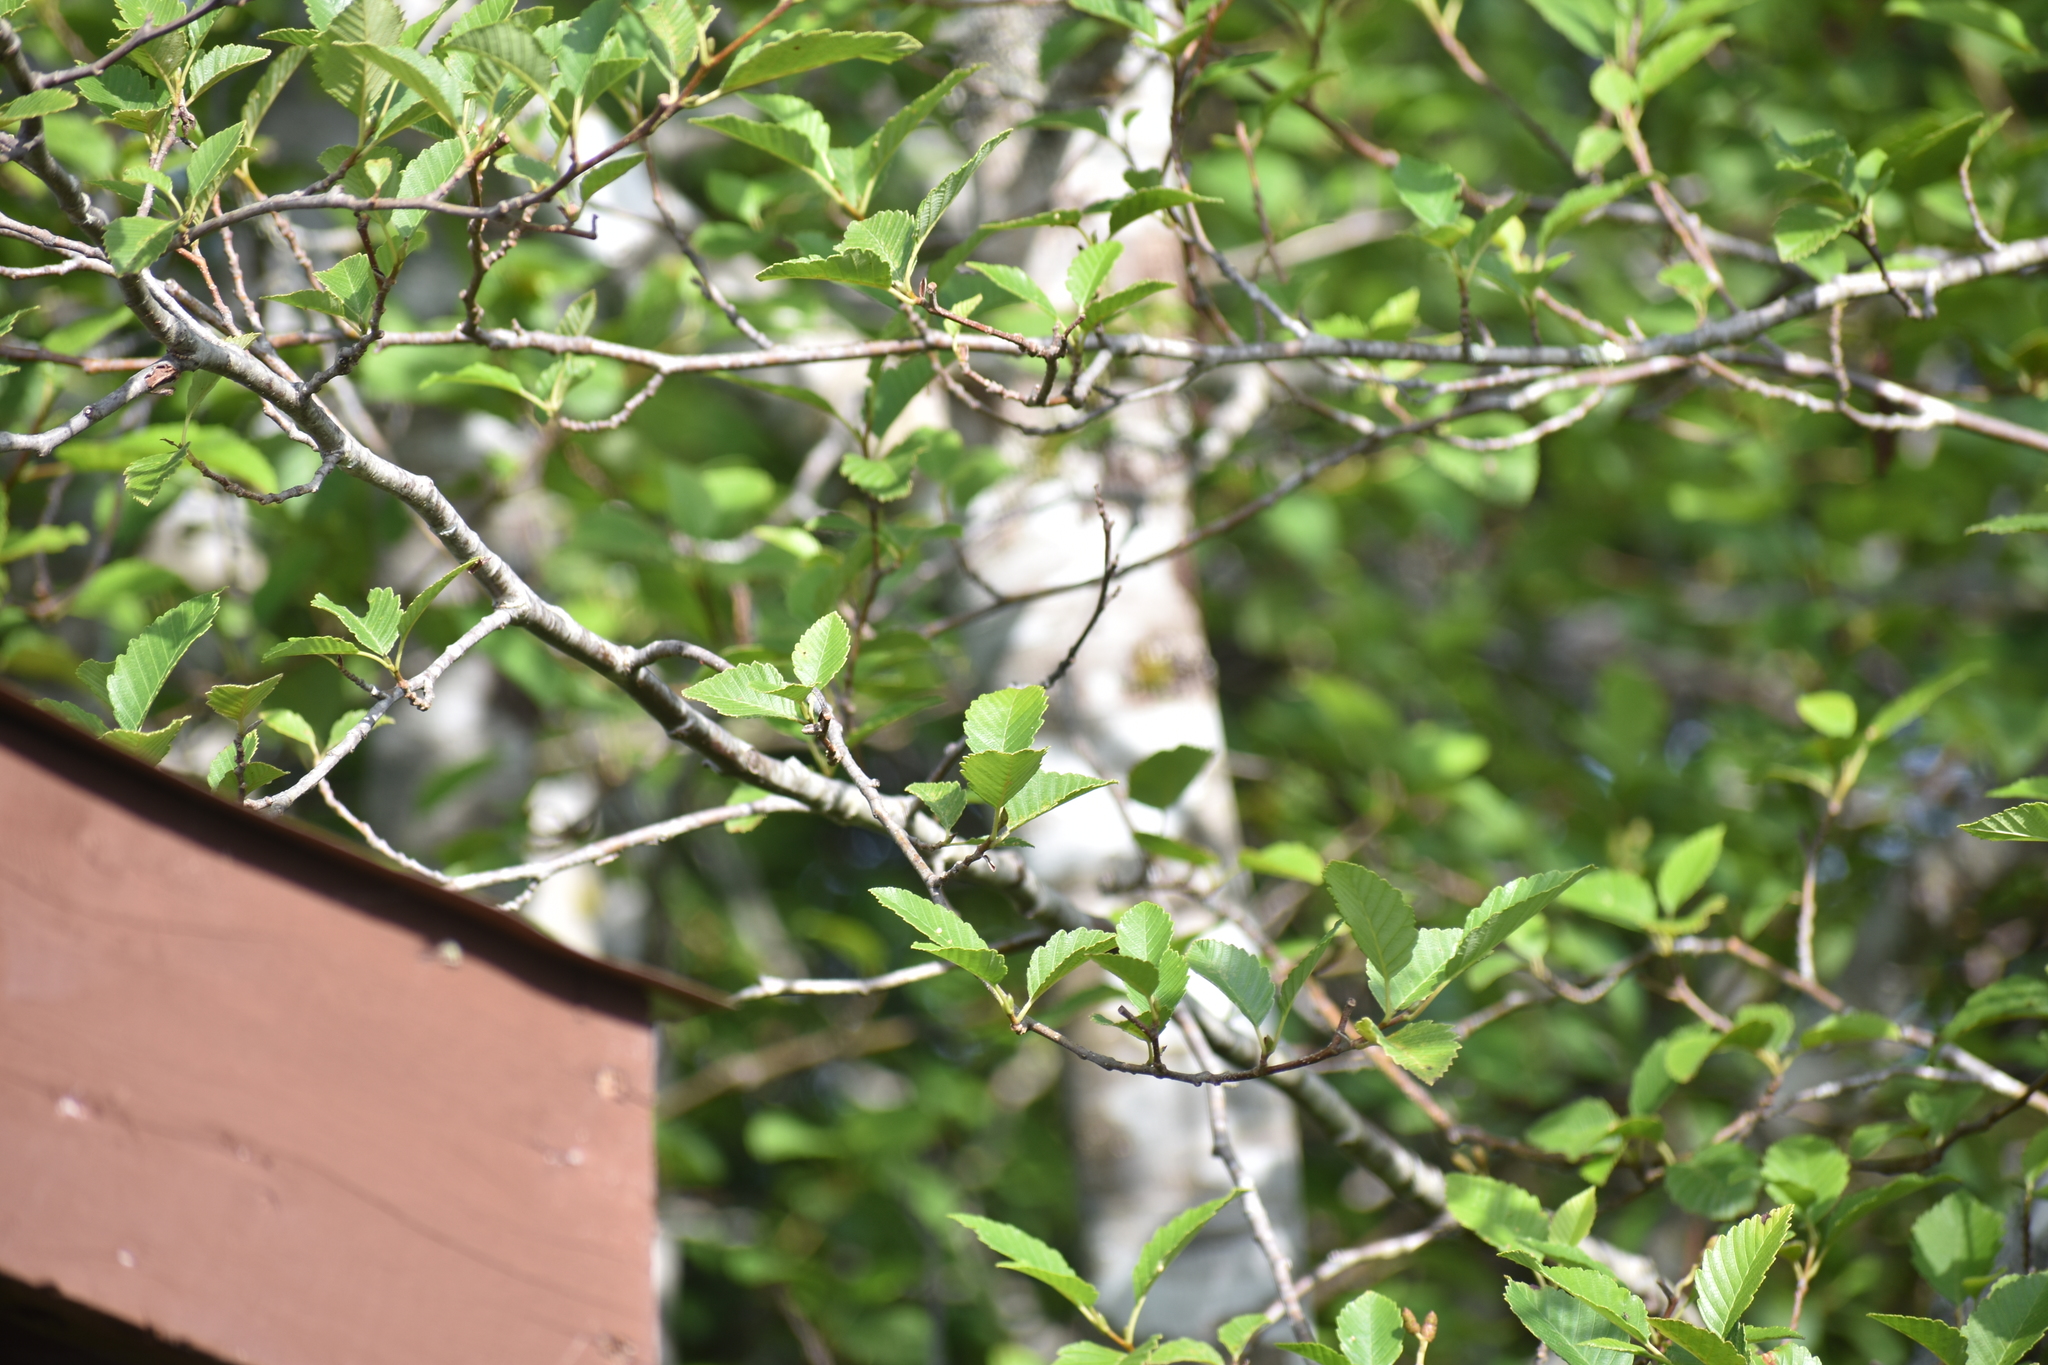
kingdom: Plantae
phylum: Tracheophyta
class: Magnoliopsida
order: Fagales
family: Betulaceae
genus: Alnus
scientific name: Alnus rubra
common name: Red alder
